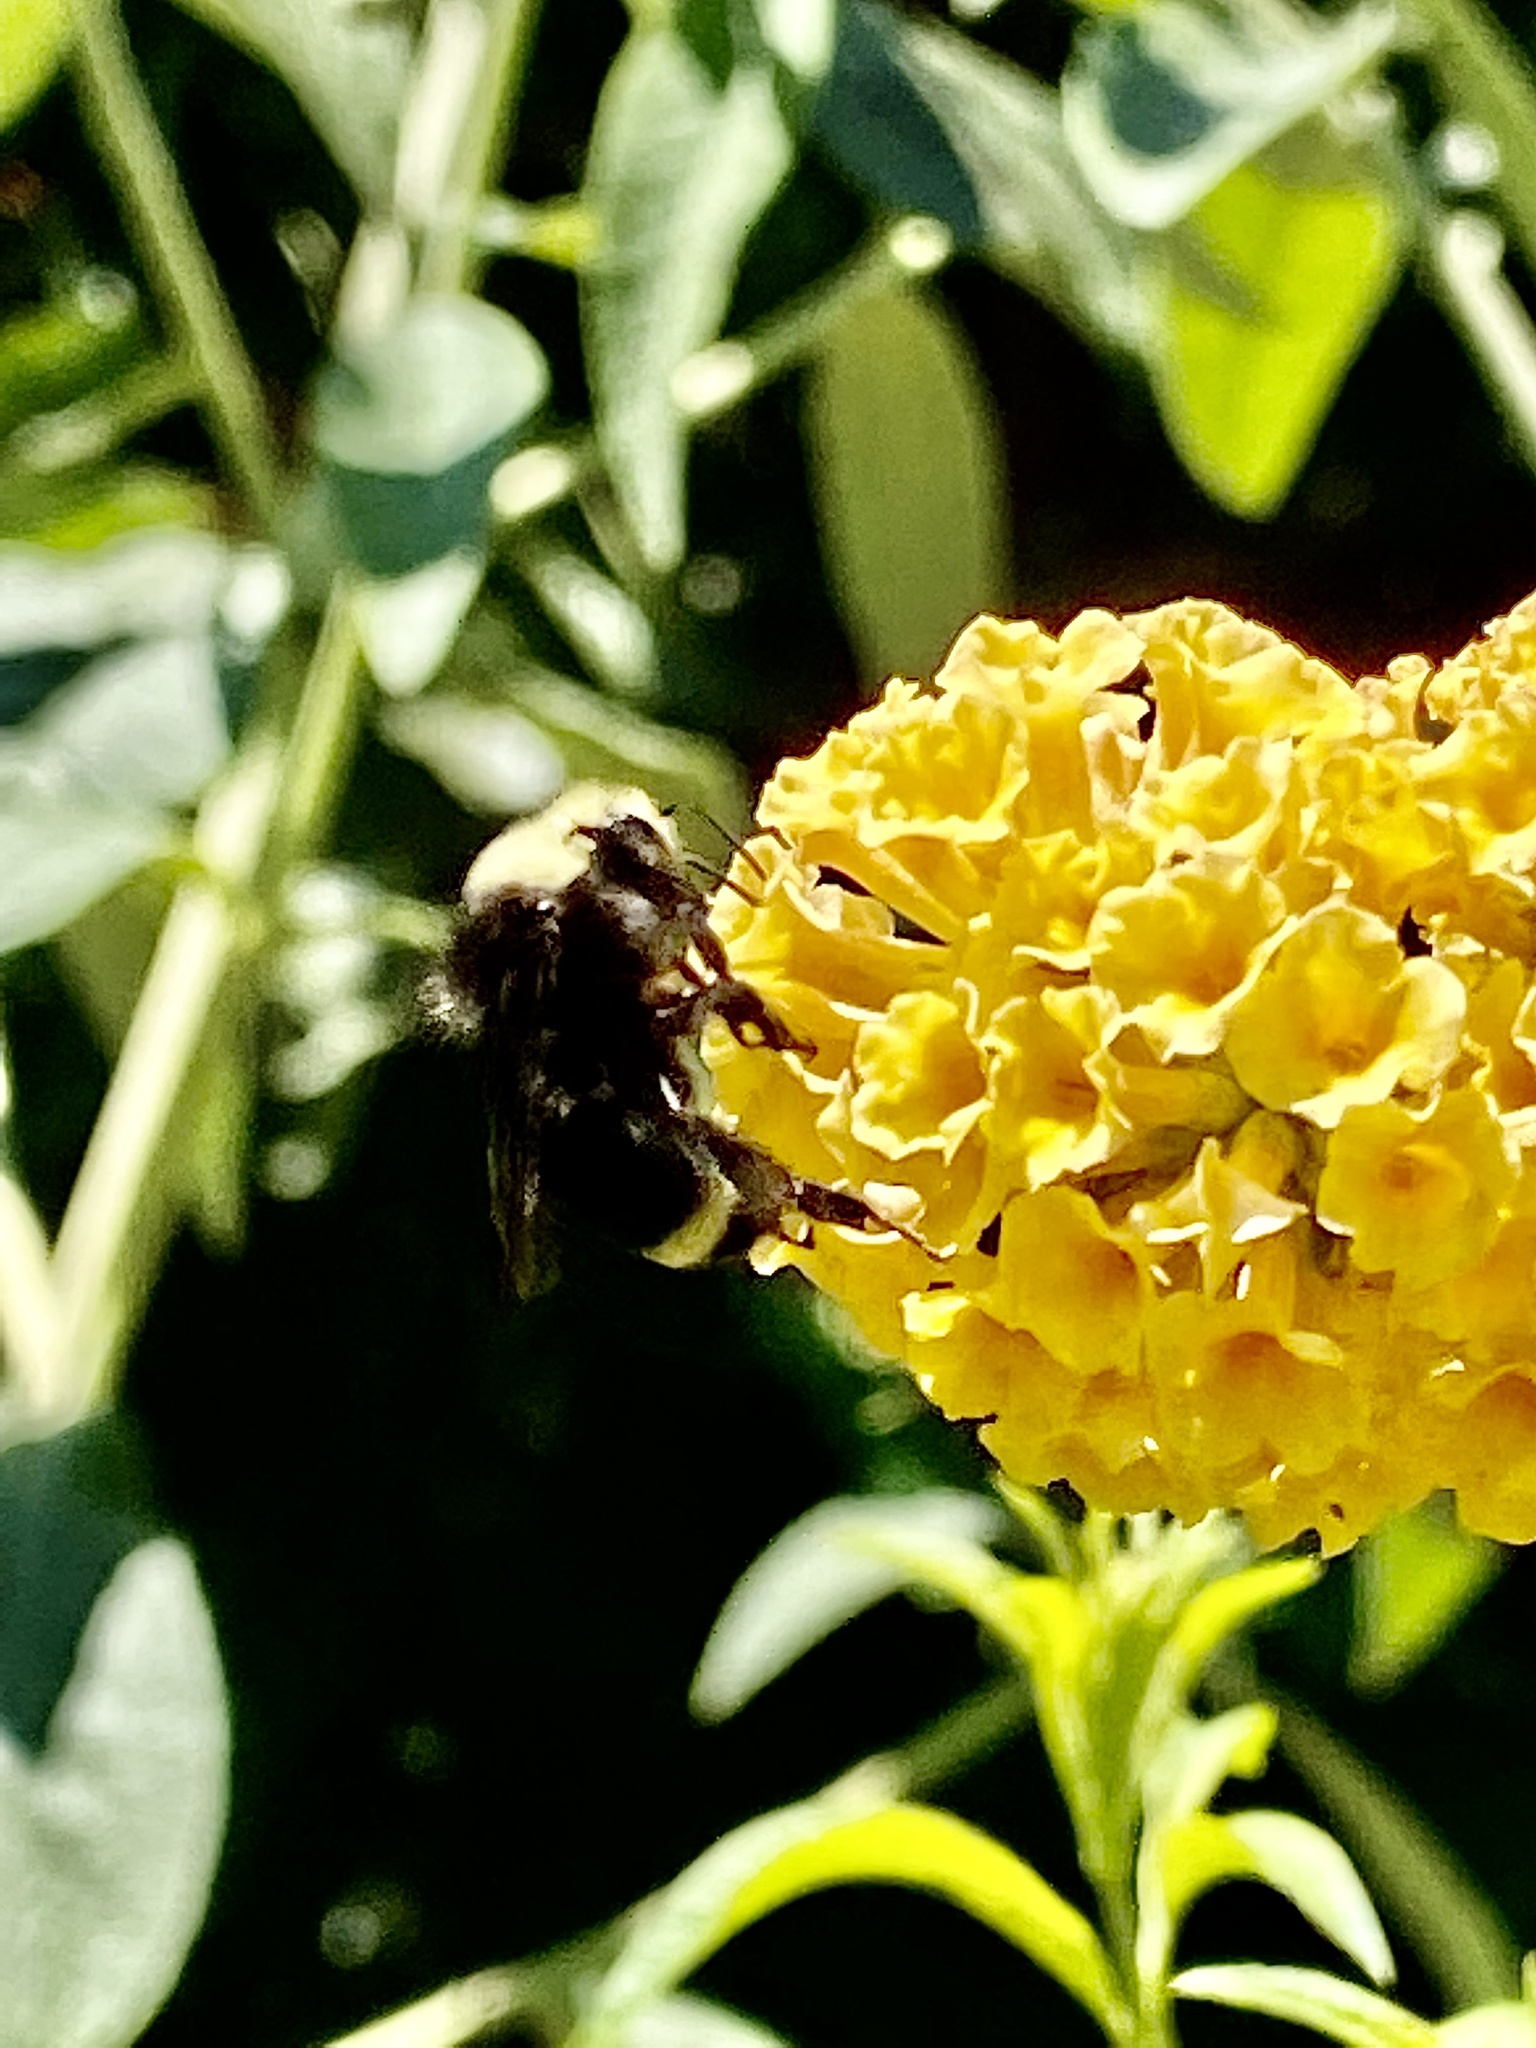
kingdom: Animalia
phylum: Arthropoda
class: Insecta
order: Hymenoptera
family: Apidae
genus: Bombus
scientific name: Bombus vosnesenskii
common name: Vosnesensky bumble bee
